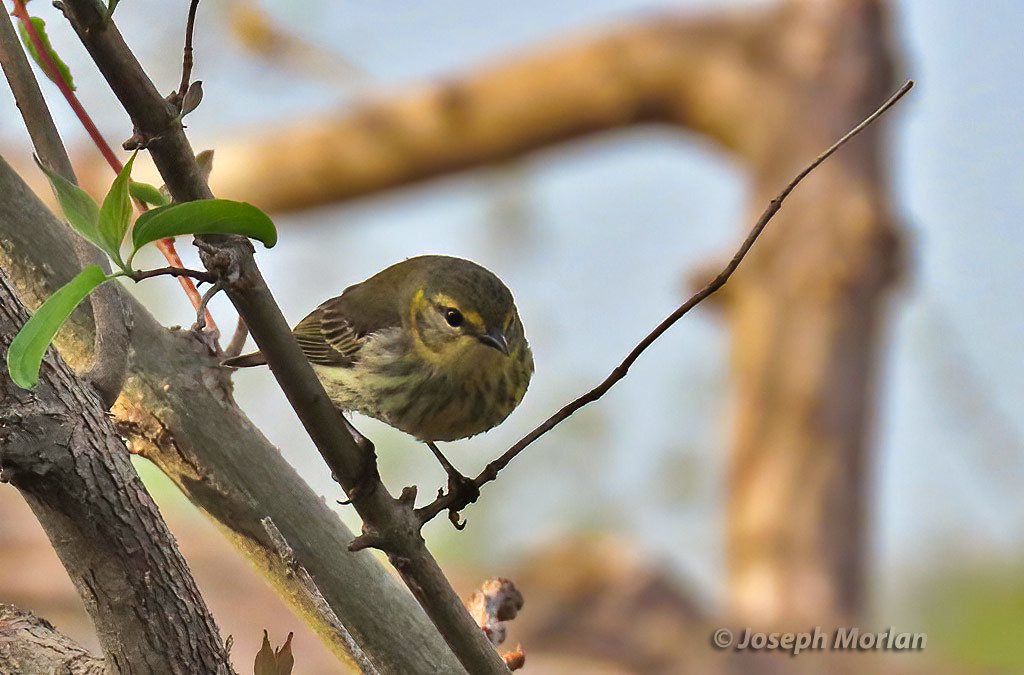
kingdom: Animalia
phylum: Chordata
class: Aves
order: Passeriformes
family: Parulidae
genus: Setophaga
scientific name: Setophaga tigrina
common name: Cape may warbler
